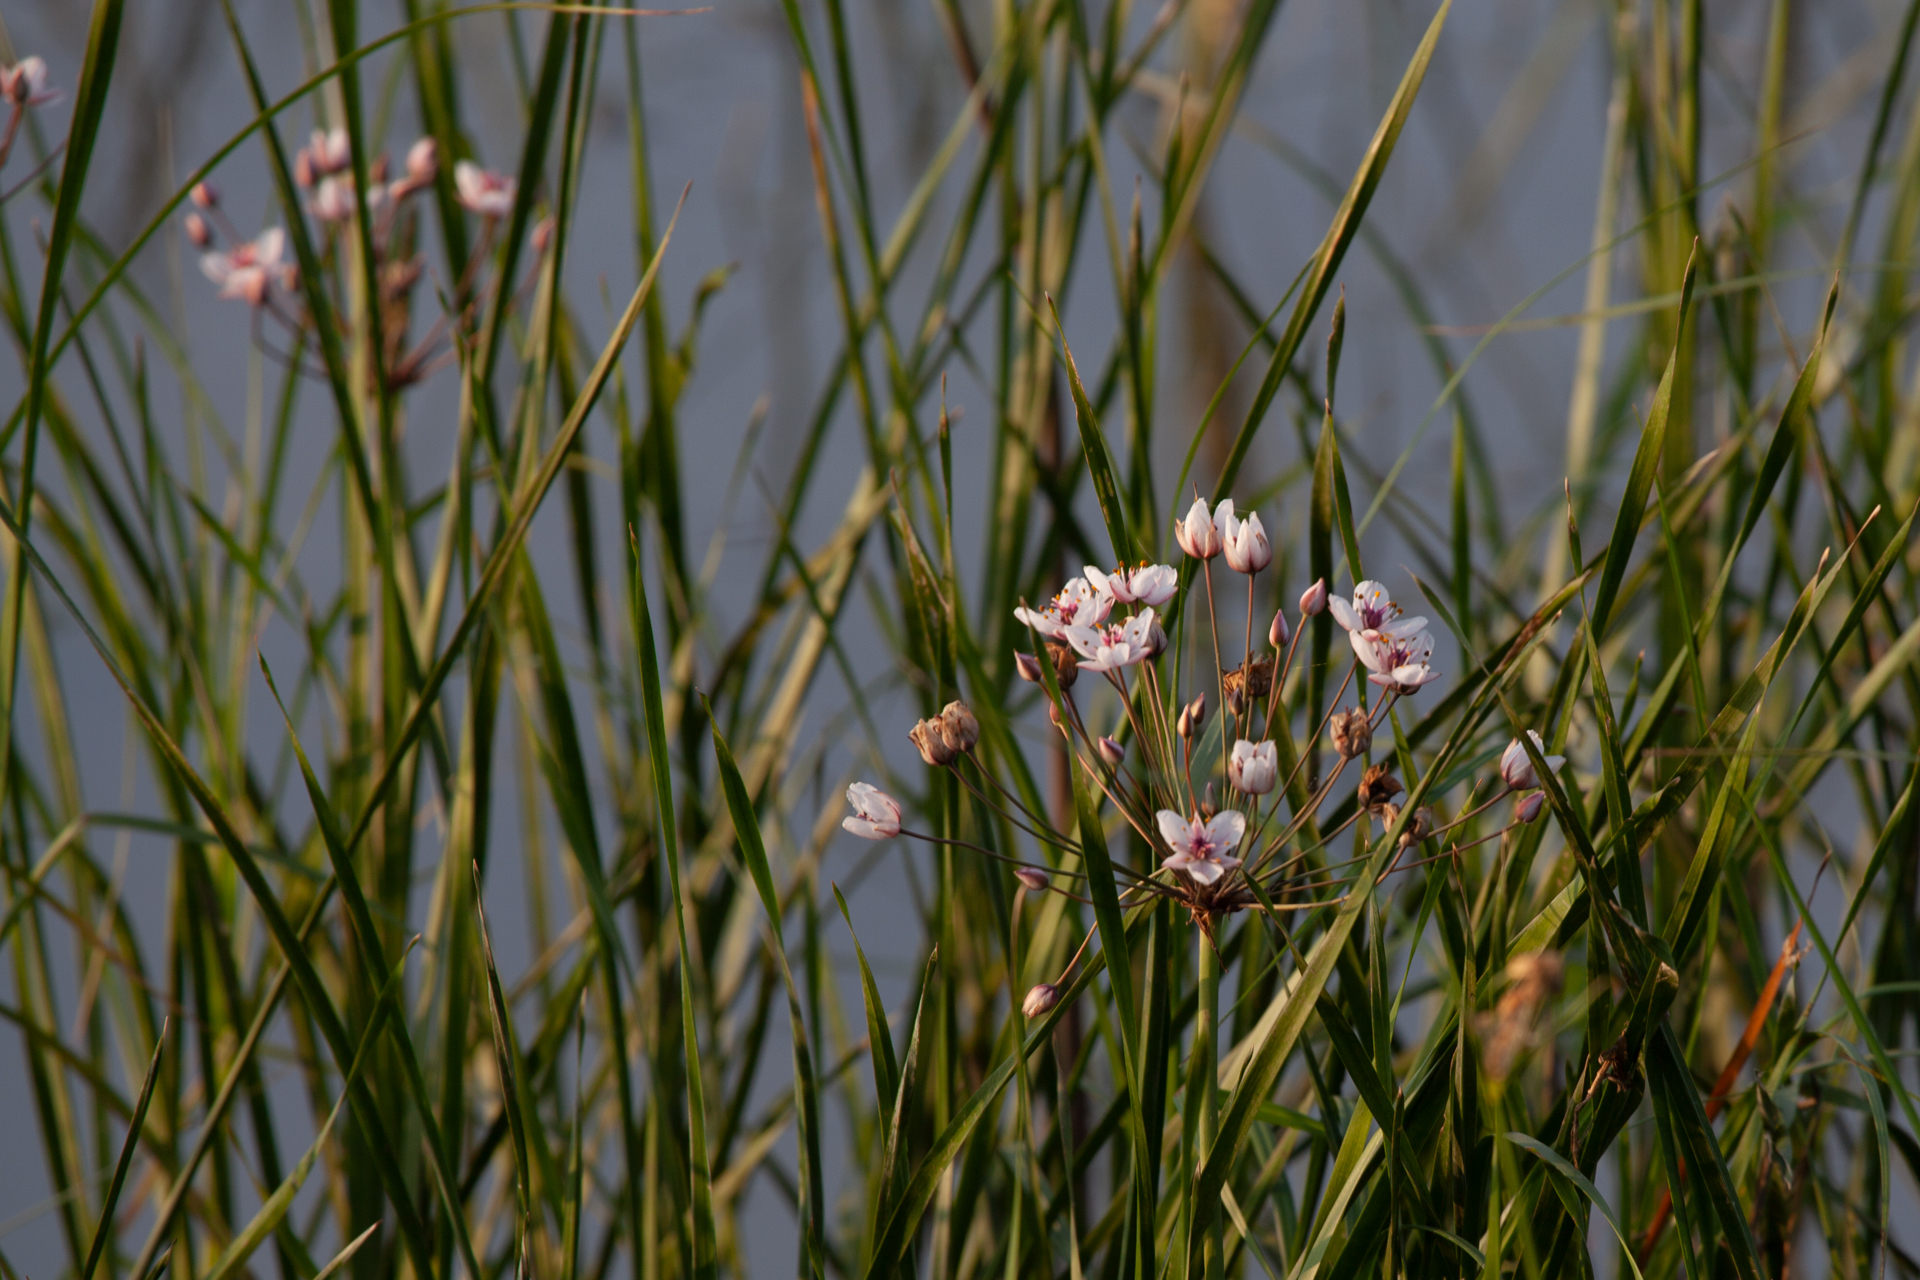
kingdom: Plantae
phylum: Tracheophyta
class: Liliopsida
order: Alismatales
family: Butomaceae
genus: Butomus
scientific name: Butomus umbellatus
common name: Flowering-rush
